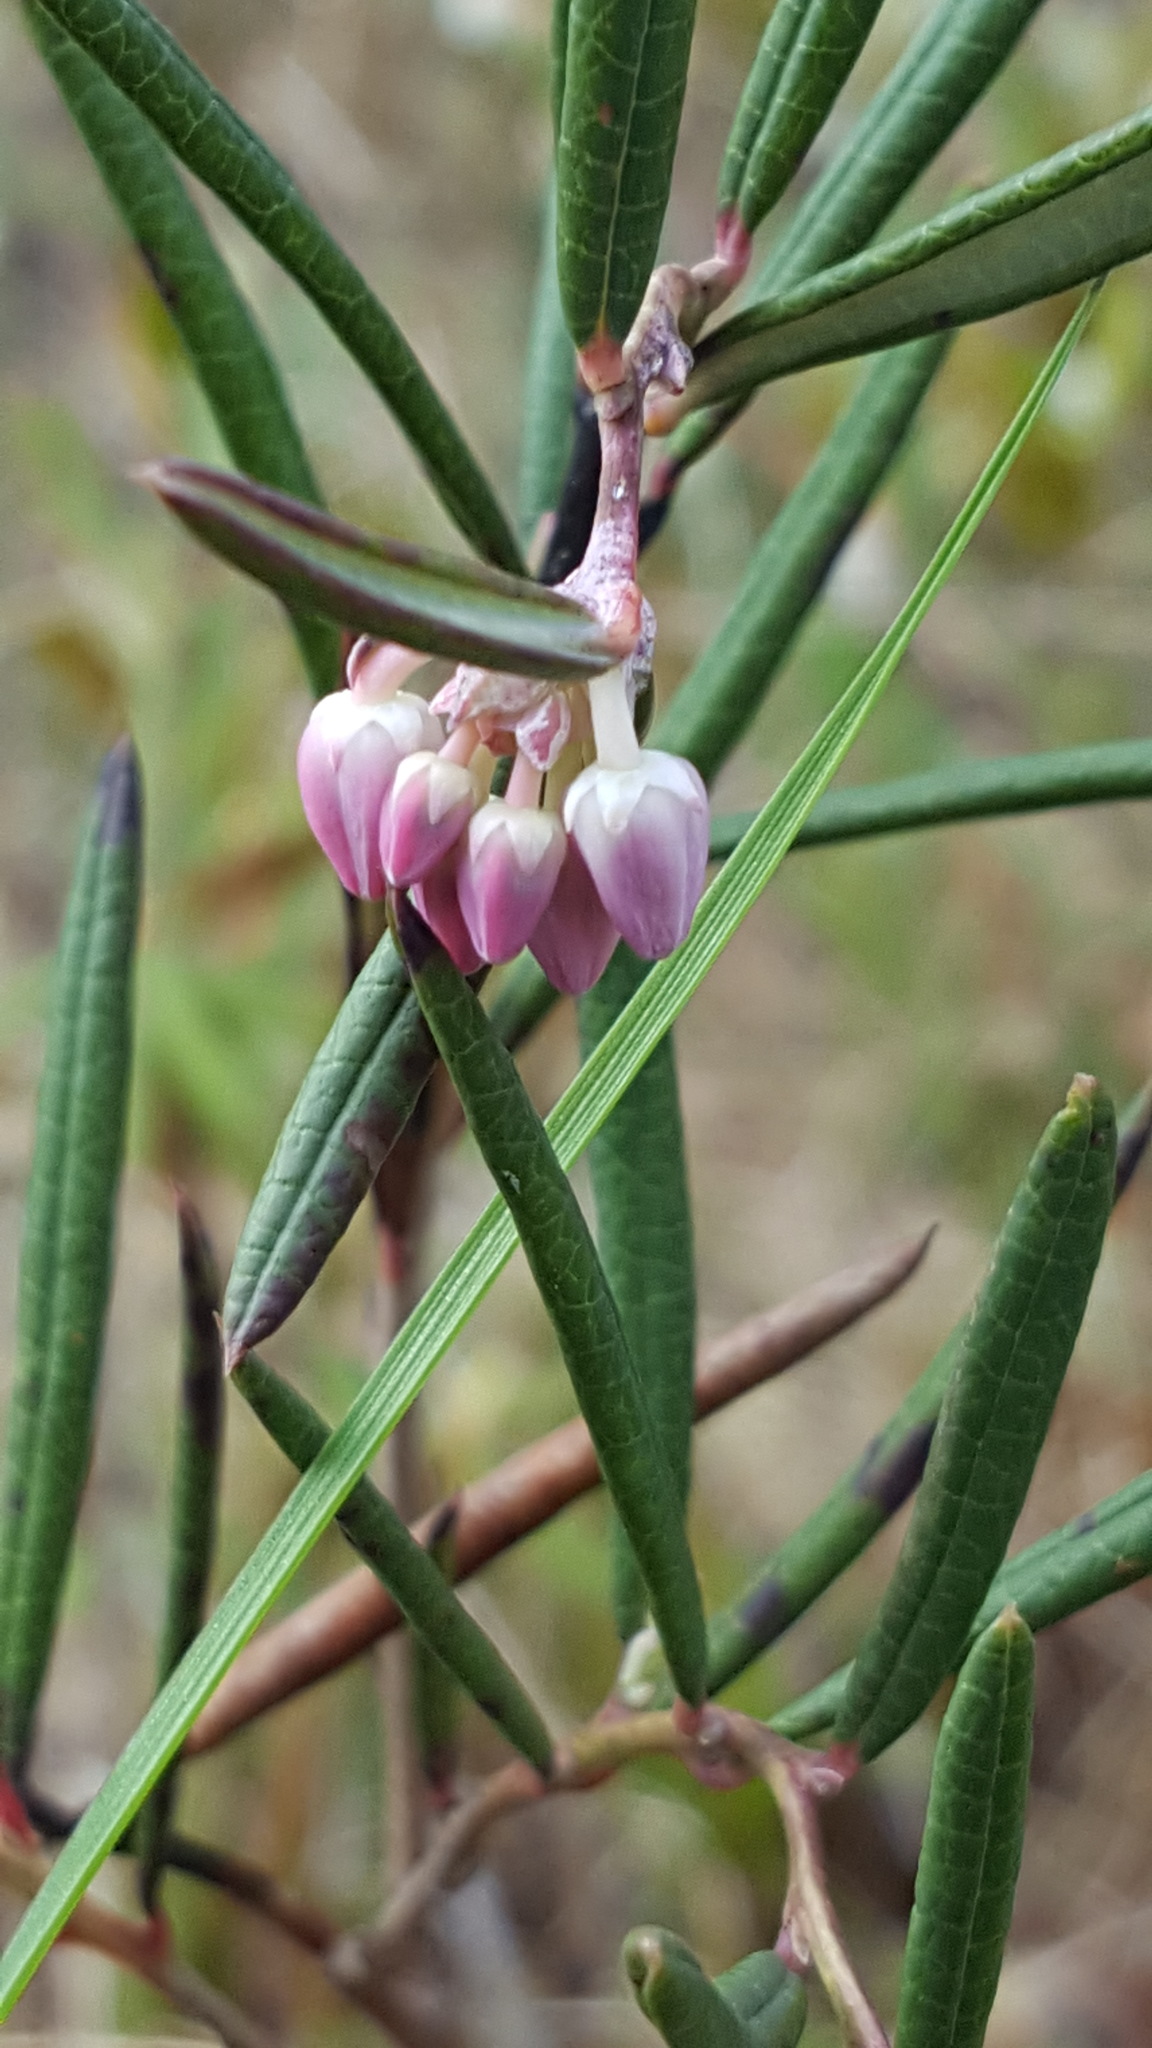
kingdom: Plantae
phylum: Tracheophyta
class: Magnoliopsida
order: Ericales
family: Ericaceae
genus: Andromeda
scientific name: Andromeda polifolia
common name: Bog-rosemary
